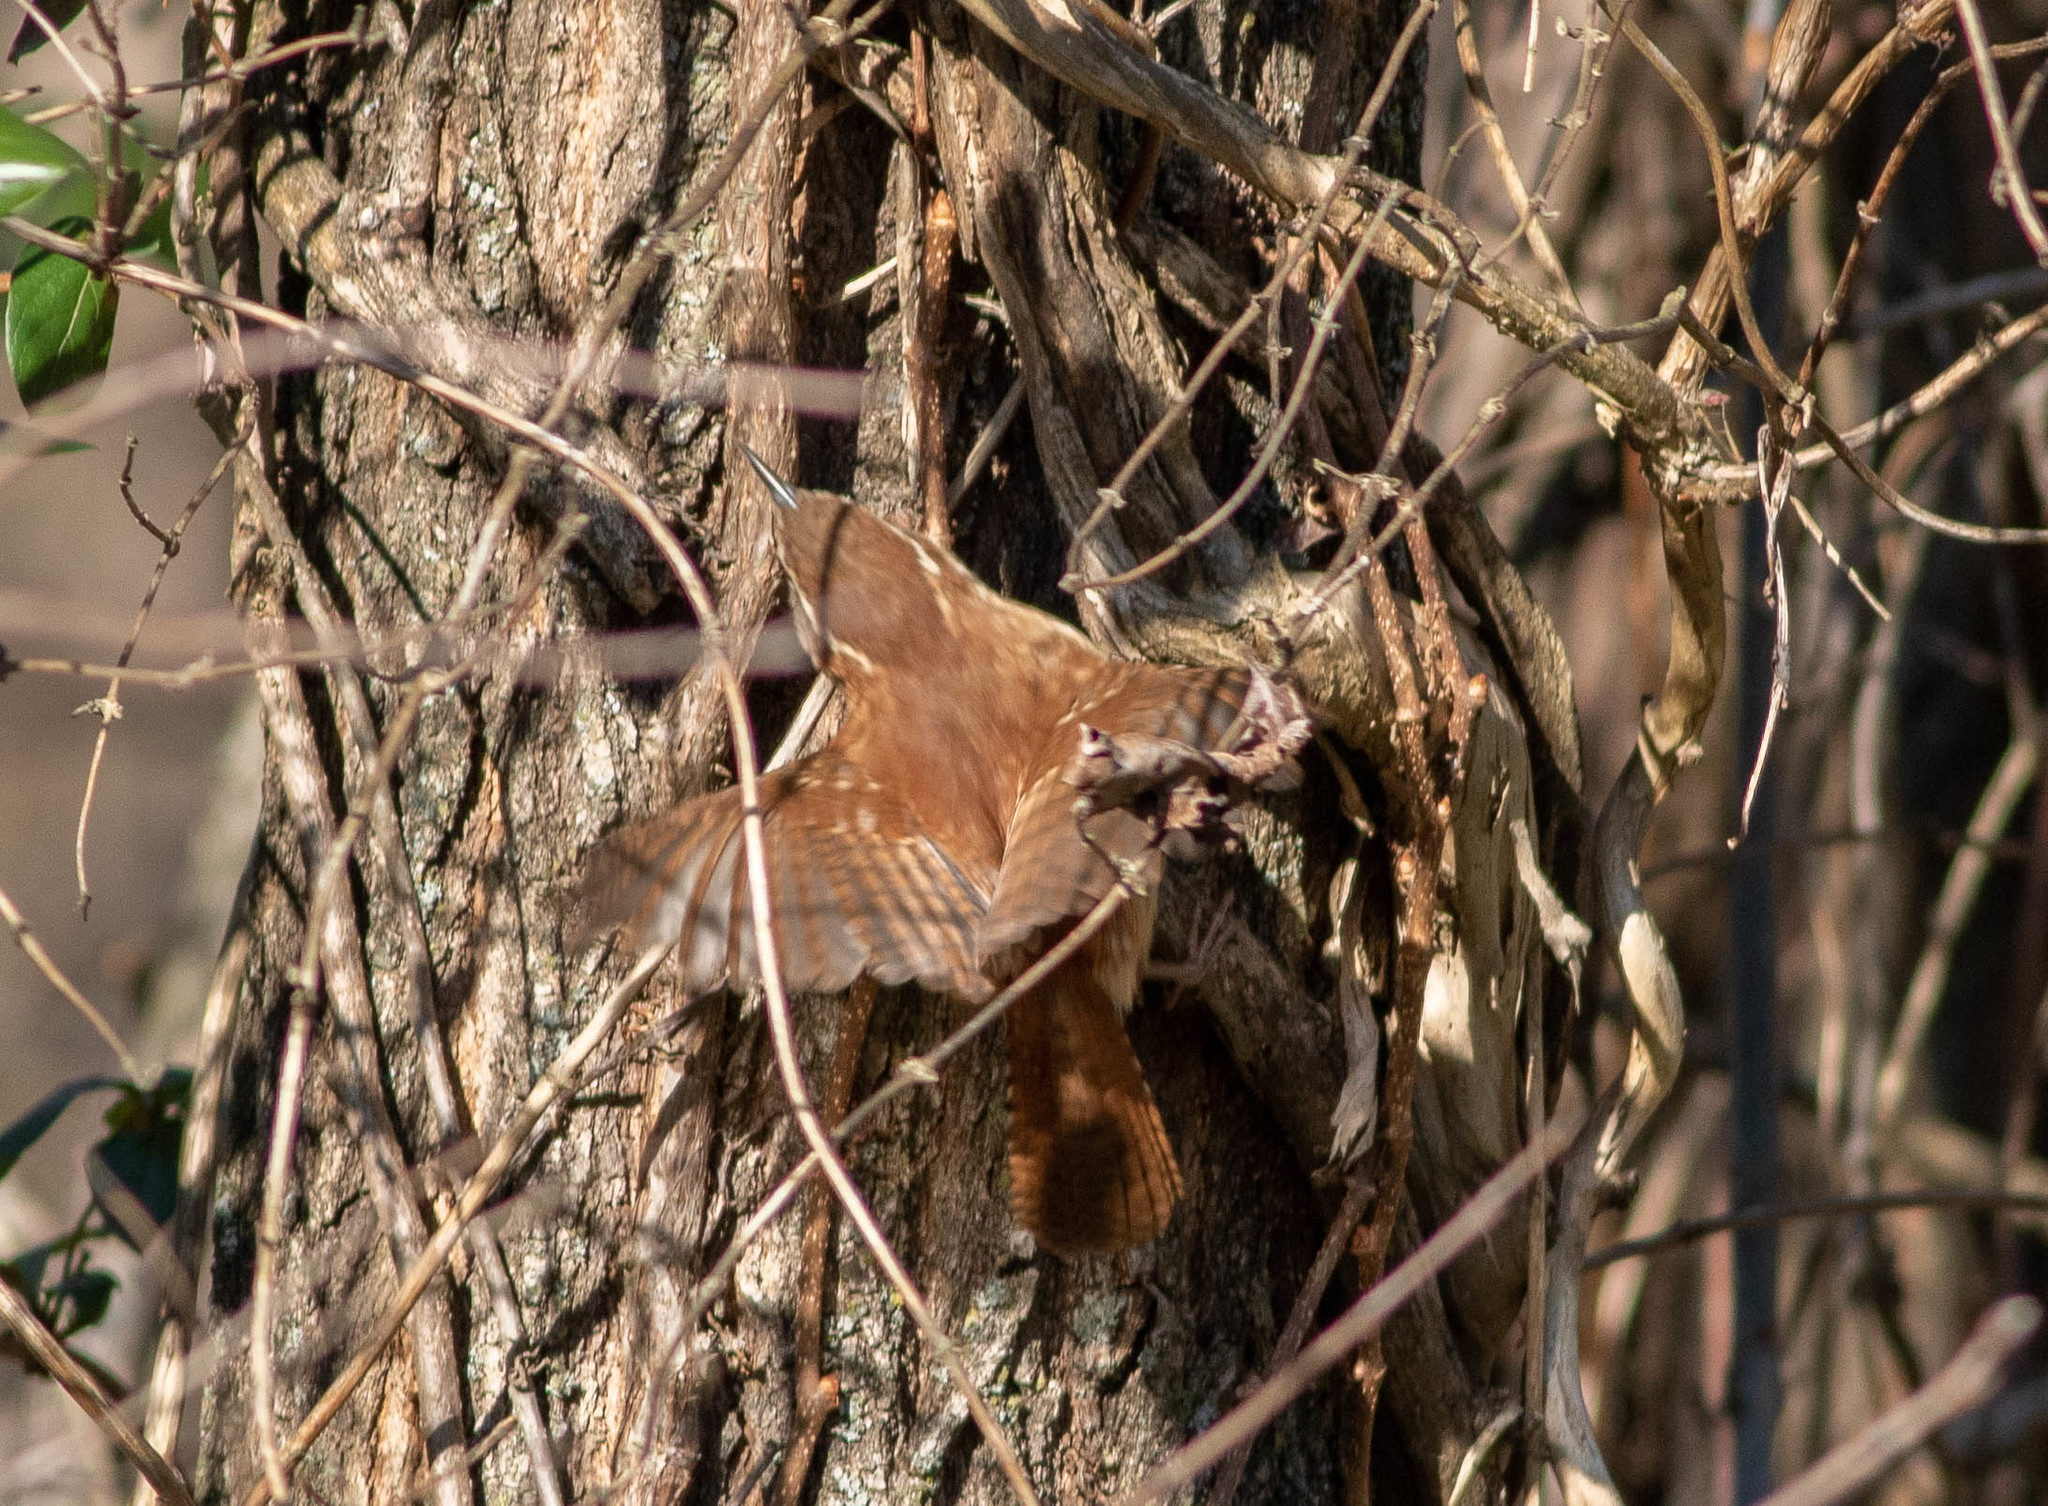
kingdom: Animalia
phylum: Chordata
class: Aves
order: Passeriformes
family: Troglodytidae
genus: Thryothorus
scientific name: Thryothorus ludovicianus
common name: Carolina wren
